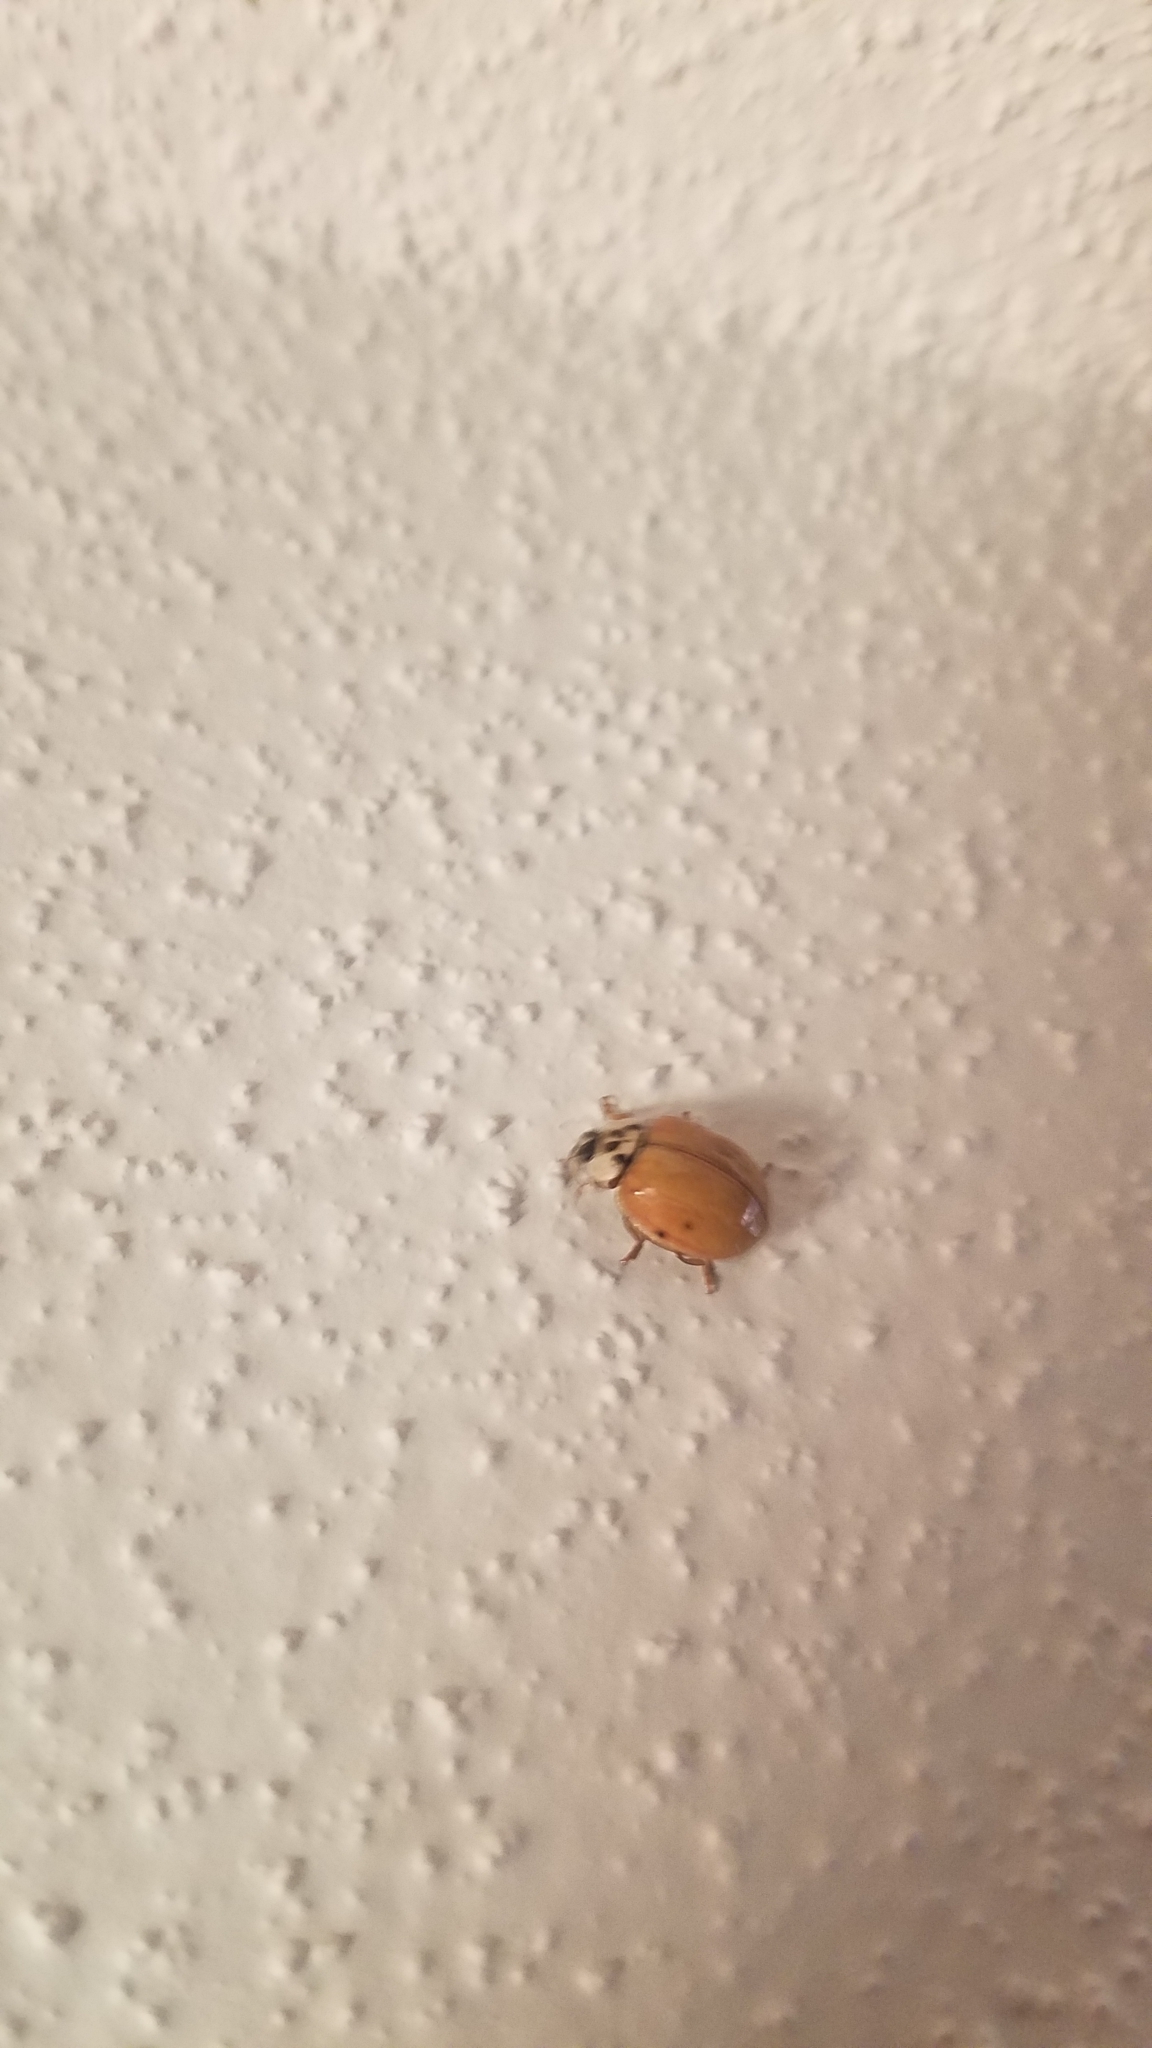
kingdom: Animalia
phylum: Arthropoda
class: Insecta
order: Coleoptera
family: Coccinellidae
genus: Harmonia
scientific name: Harmonia axyridis
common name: Harlequin ladybird
